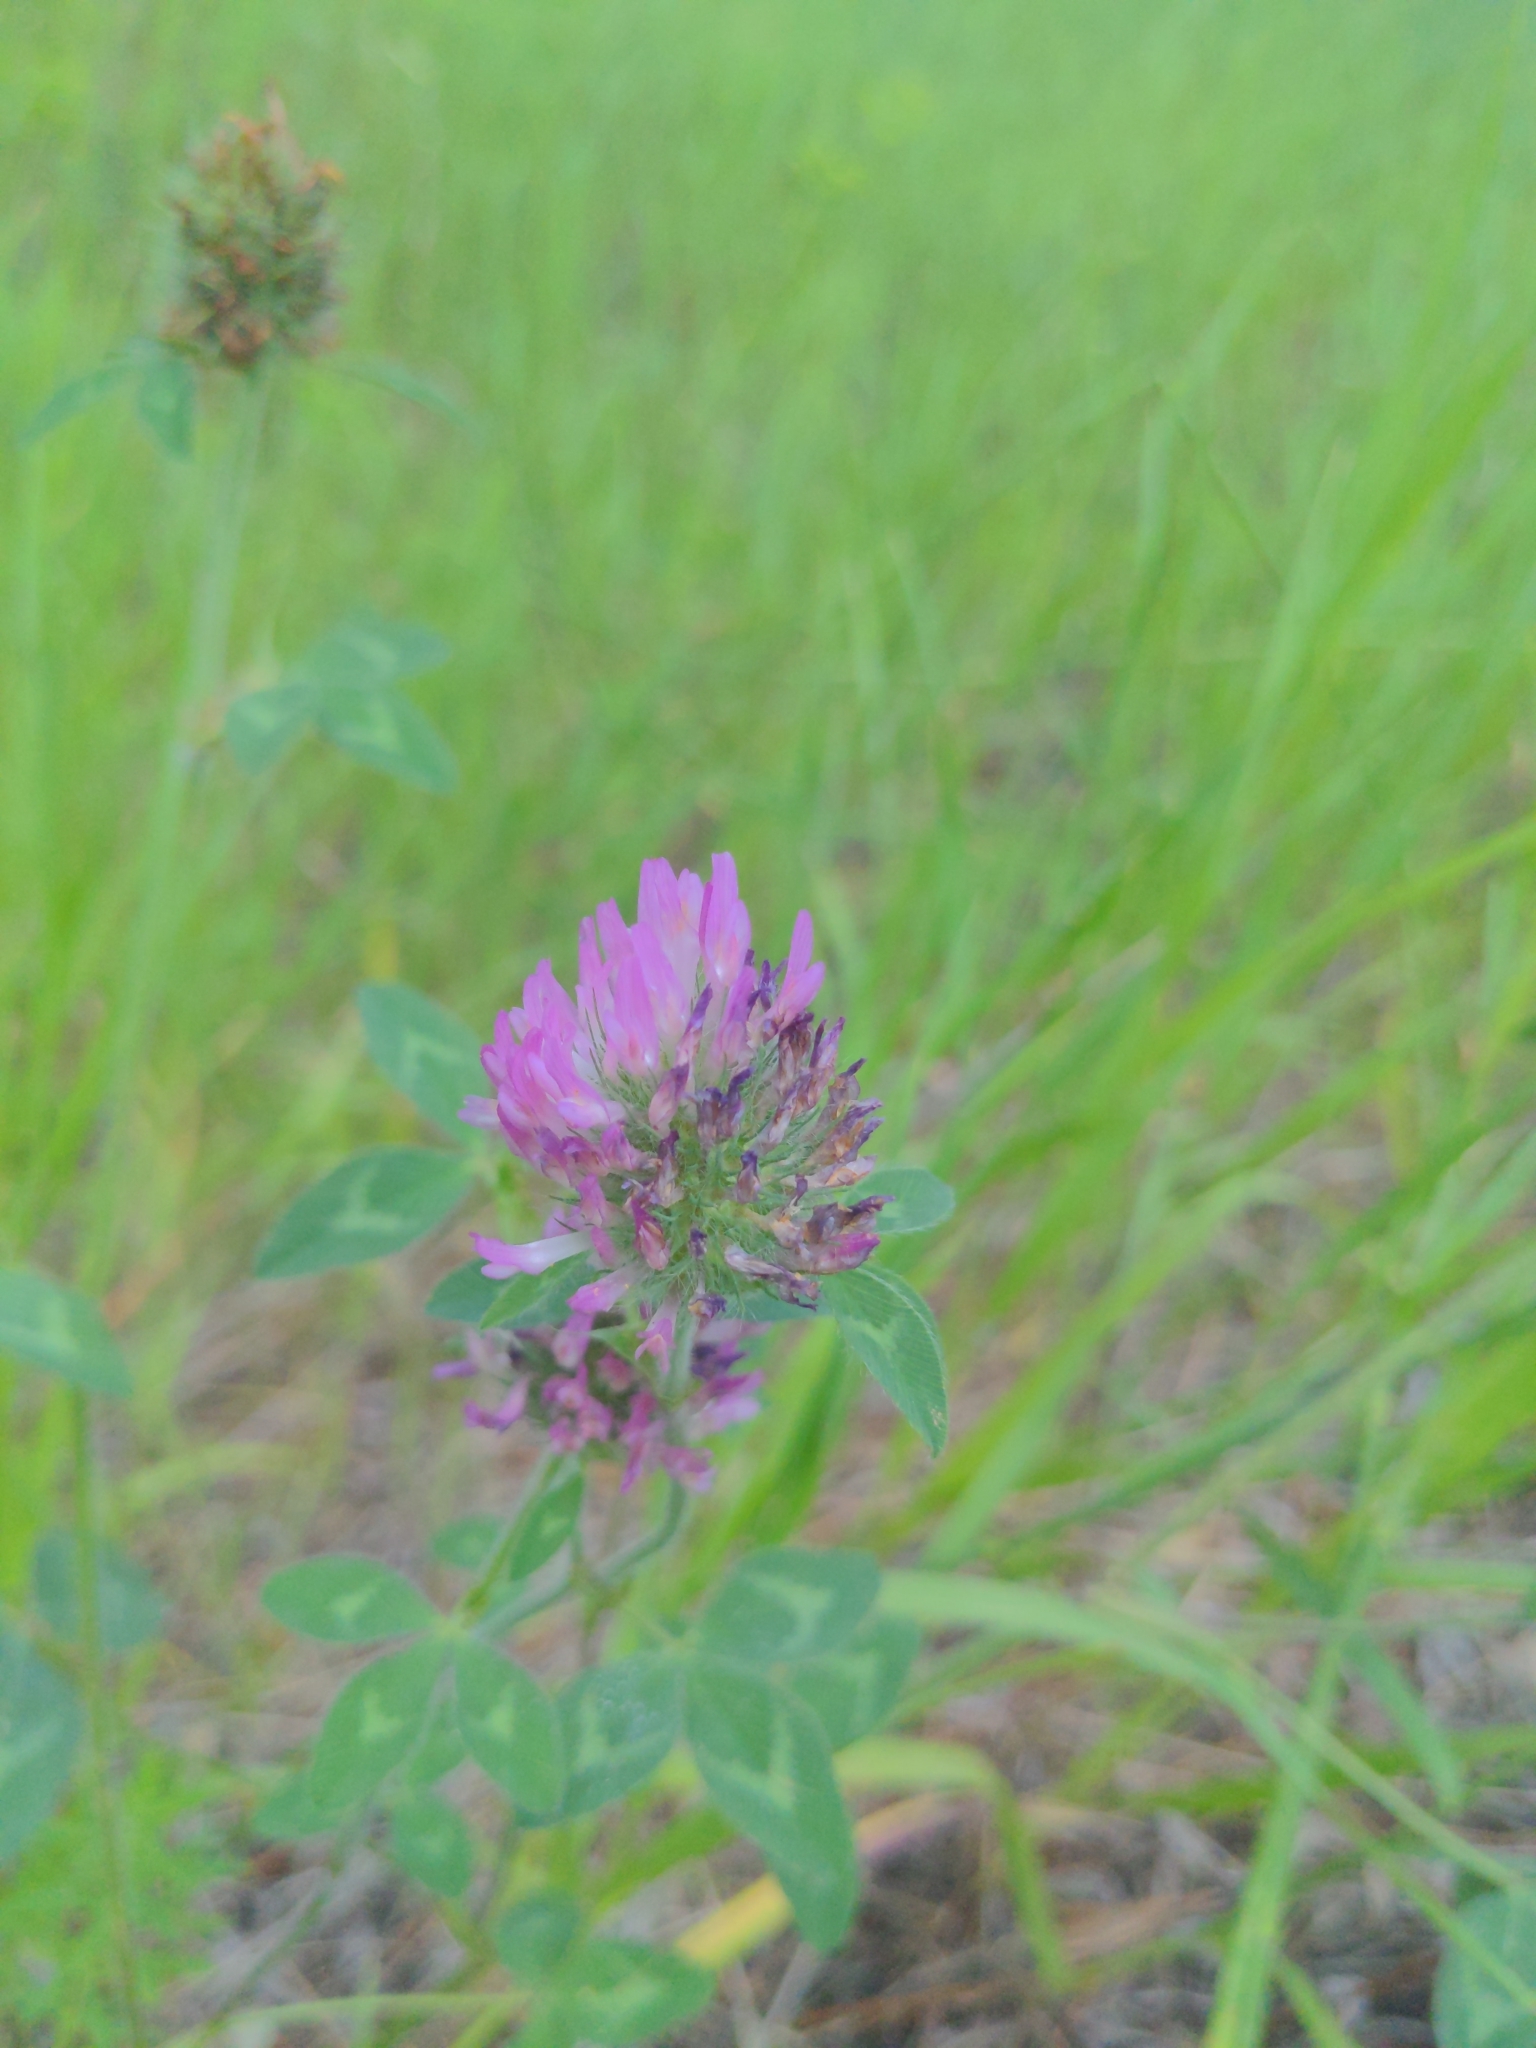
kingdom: Plantae
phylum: Tracheophyta
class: Magnoliopsida
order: Fabales
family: Fabaceae
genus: Trifolium
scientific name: Trifolium pratense
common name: Red clover
